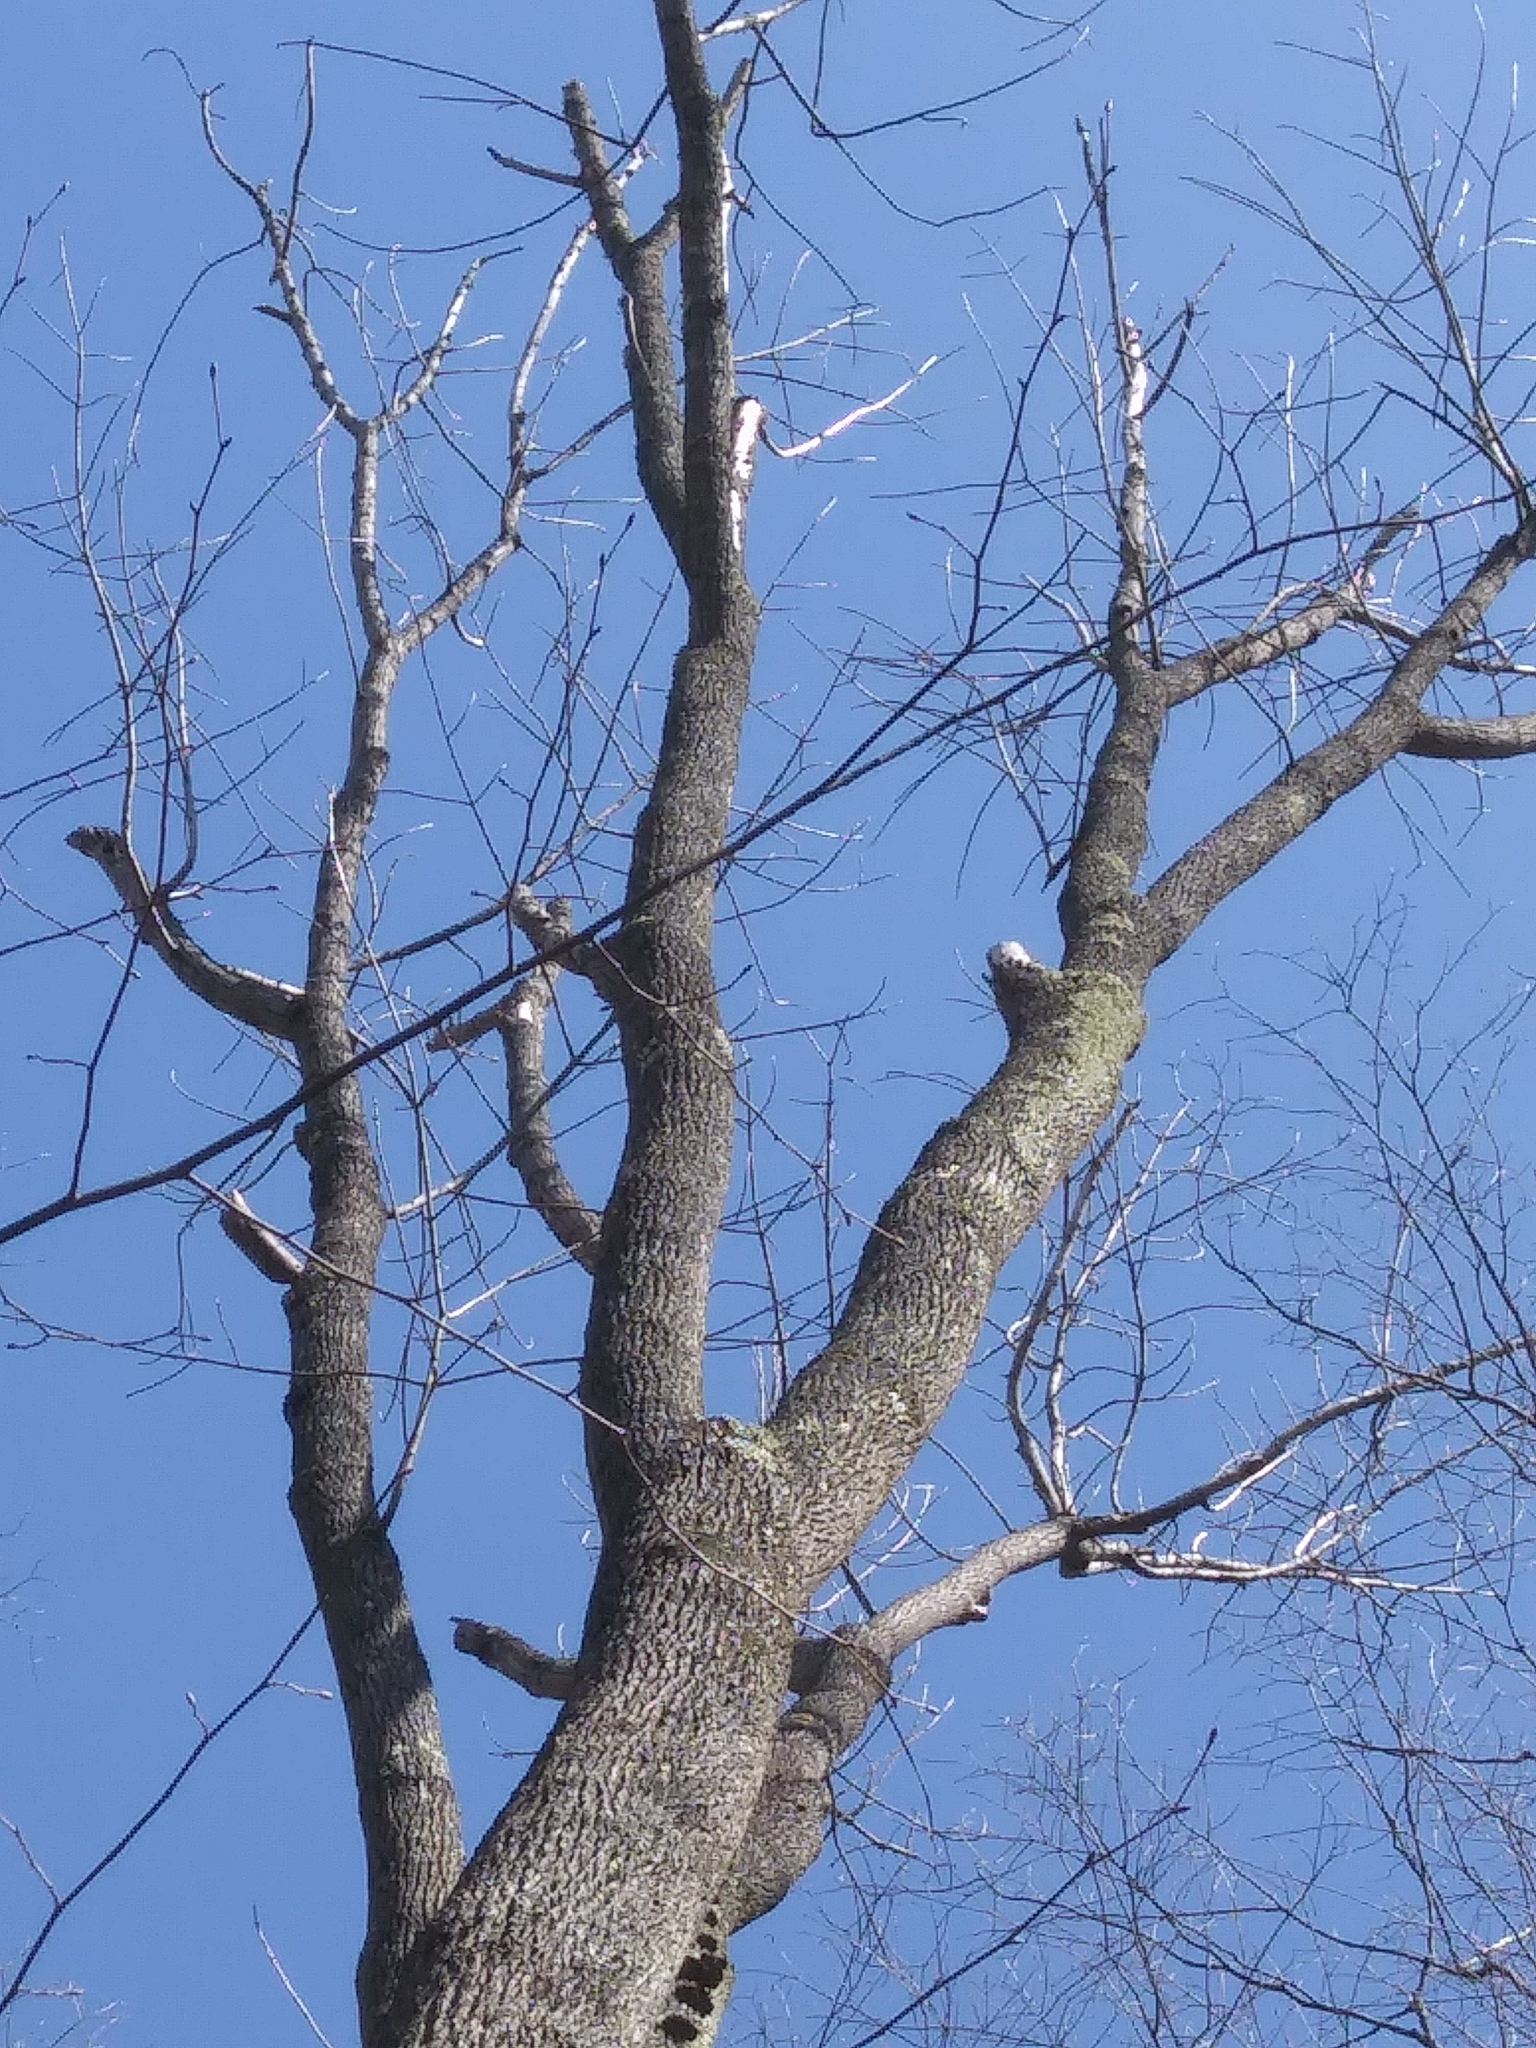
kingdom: Plantae
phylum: Tracheophyta
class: Magnoliopsida
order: Lamiales
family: Oleaceae
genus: Fraxinus
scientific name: Fraxinus americana
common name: White ash
